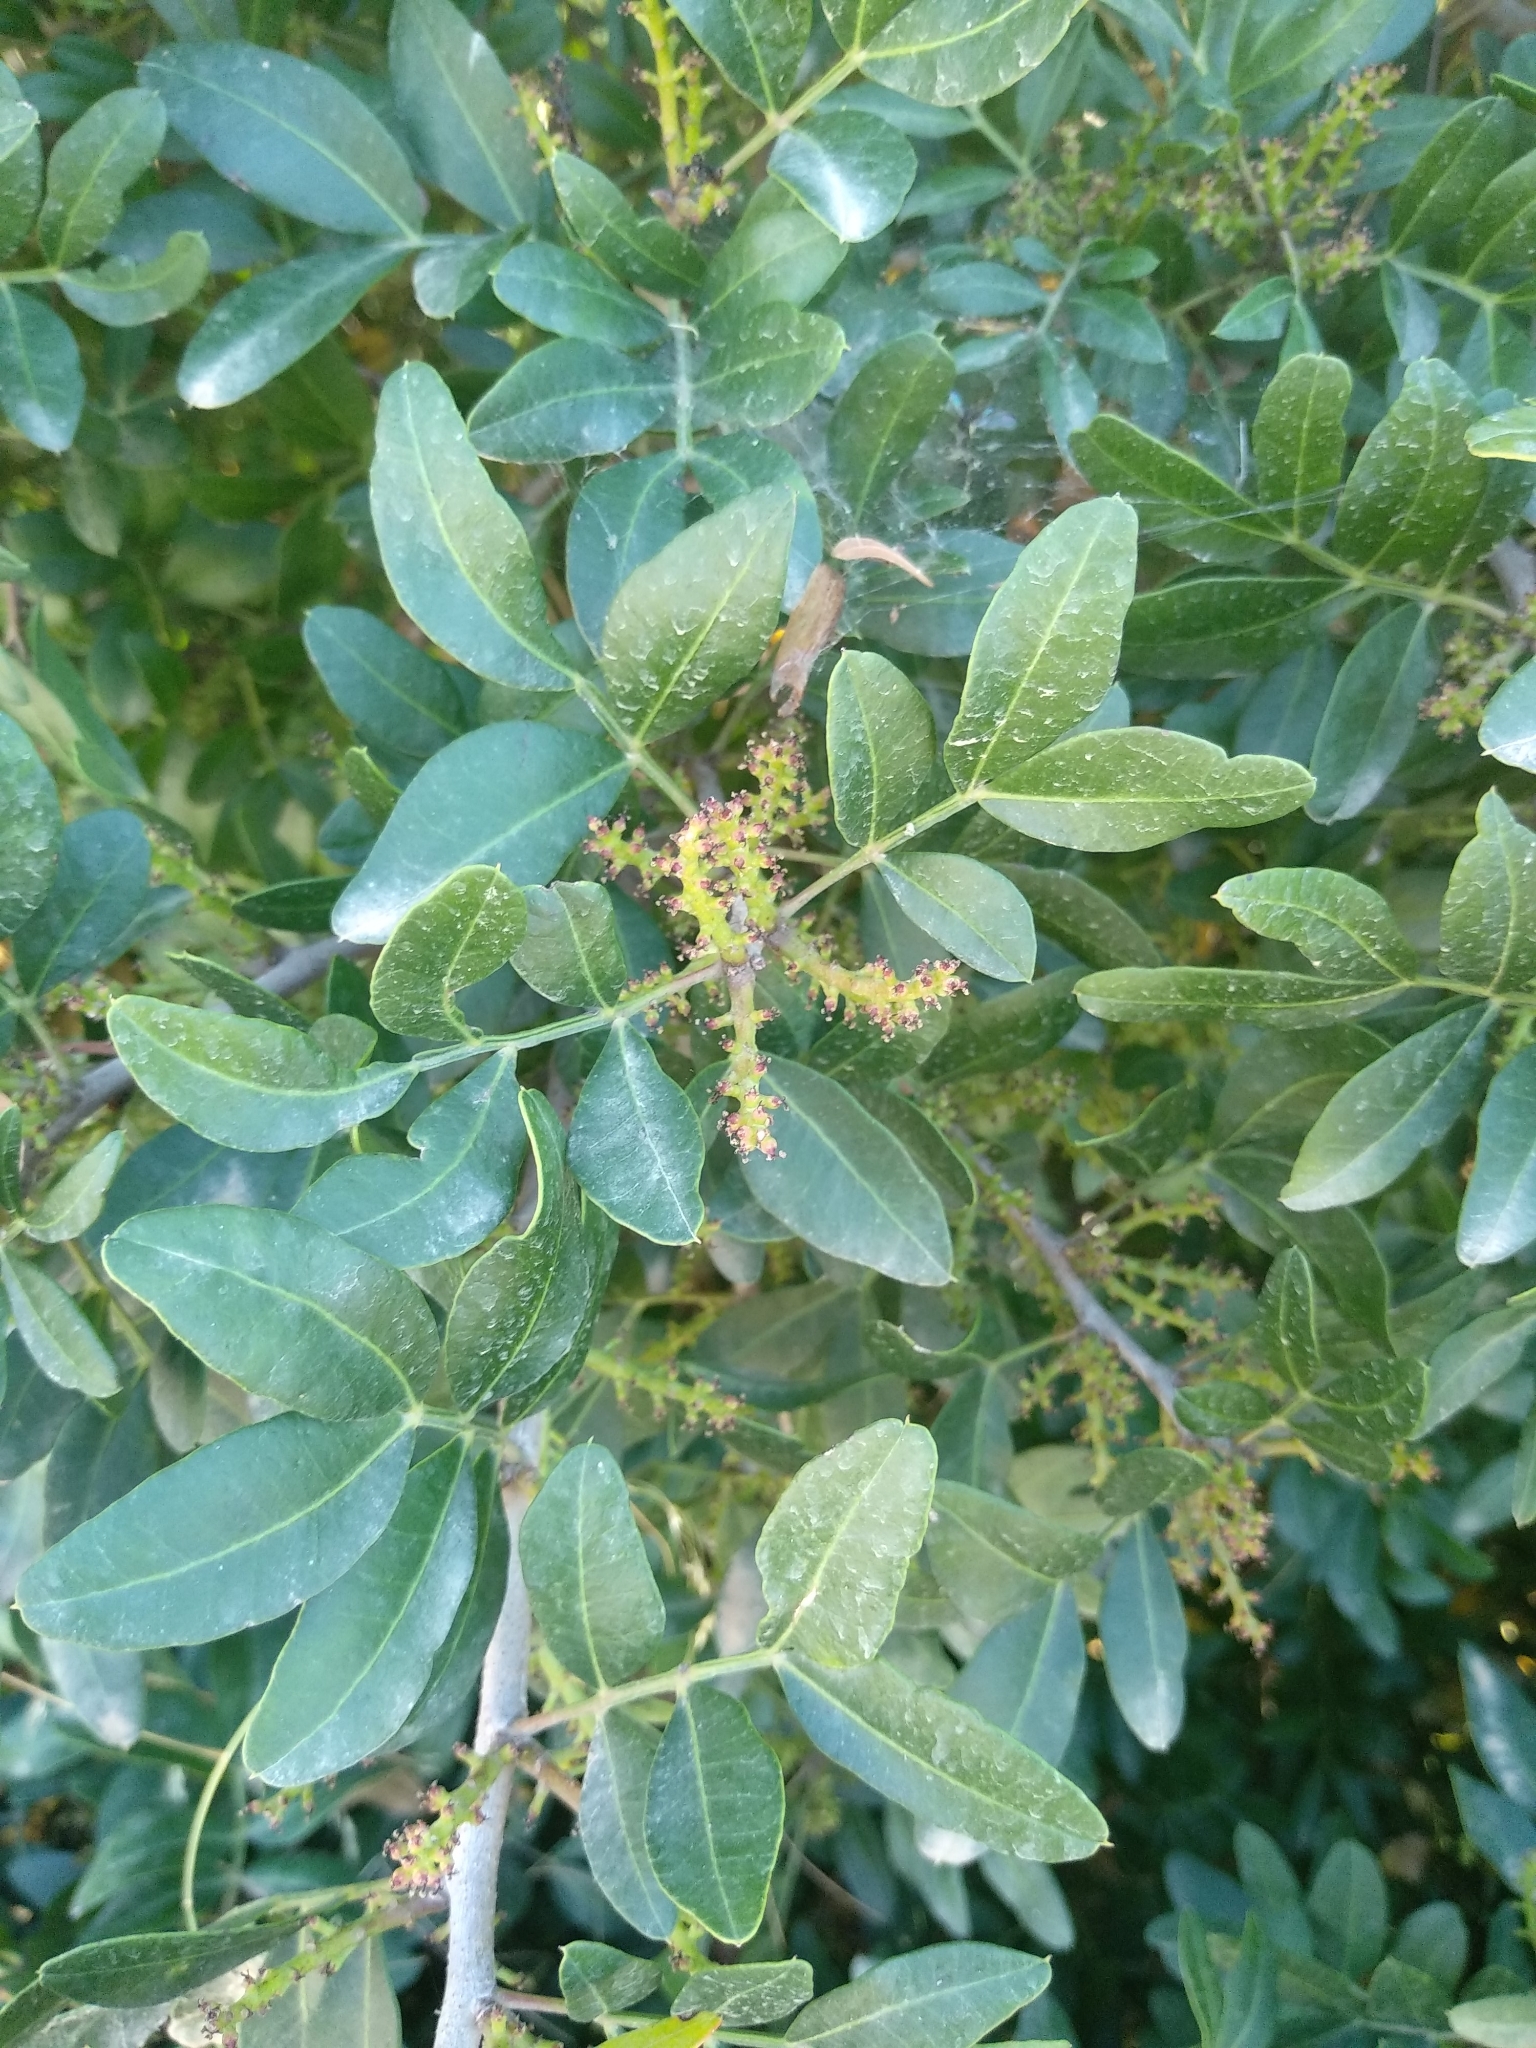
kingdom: Plantae
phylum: Tracheophyta
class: Magnoliopsida
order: Sapindales
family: Anacardiaceae
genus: Pistacia
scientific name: Pistacia lentiscus
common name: Lentisk
